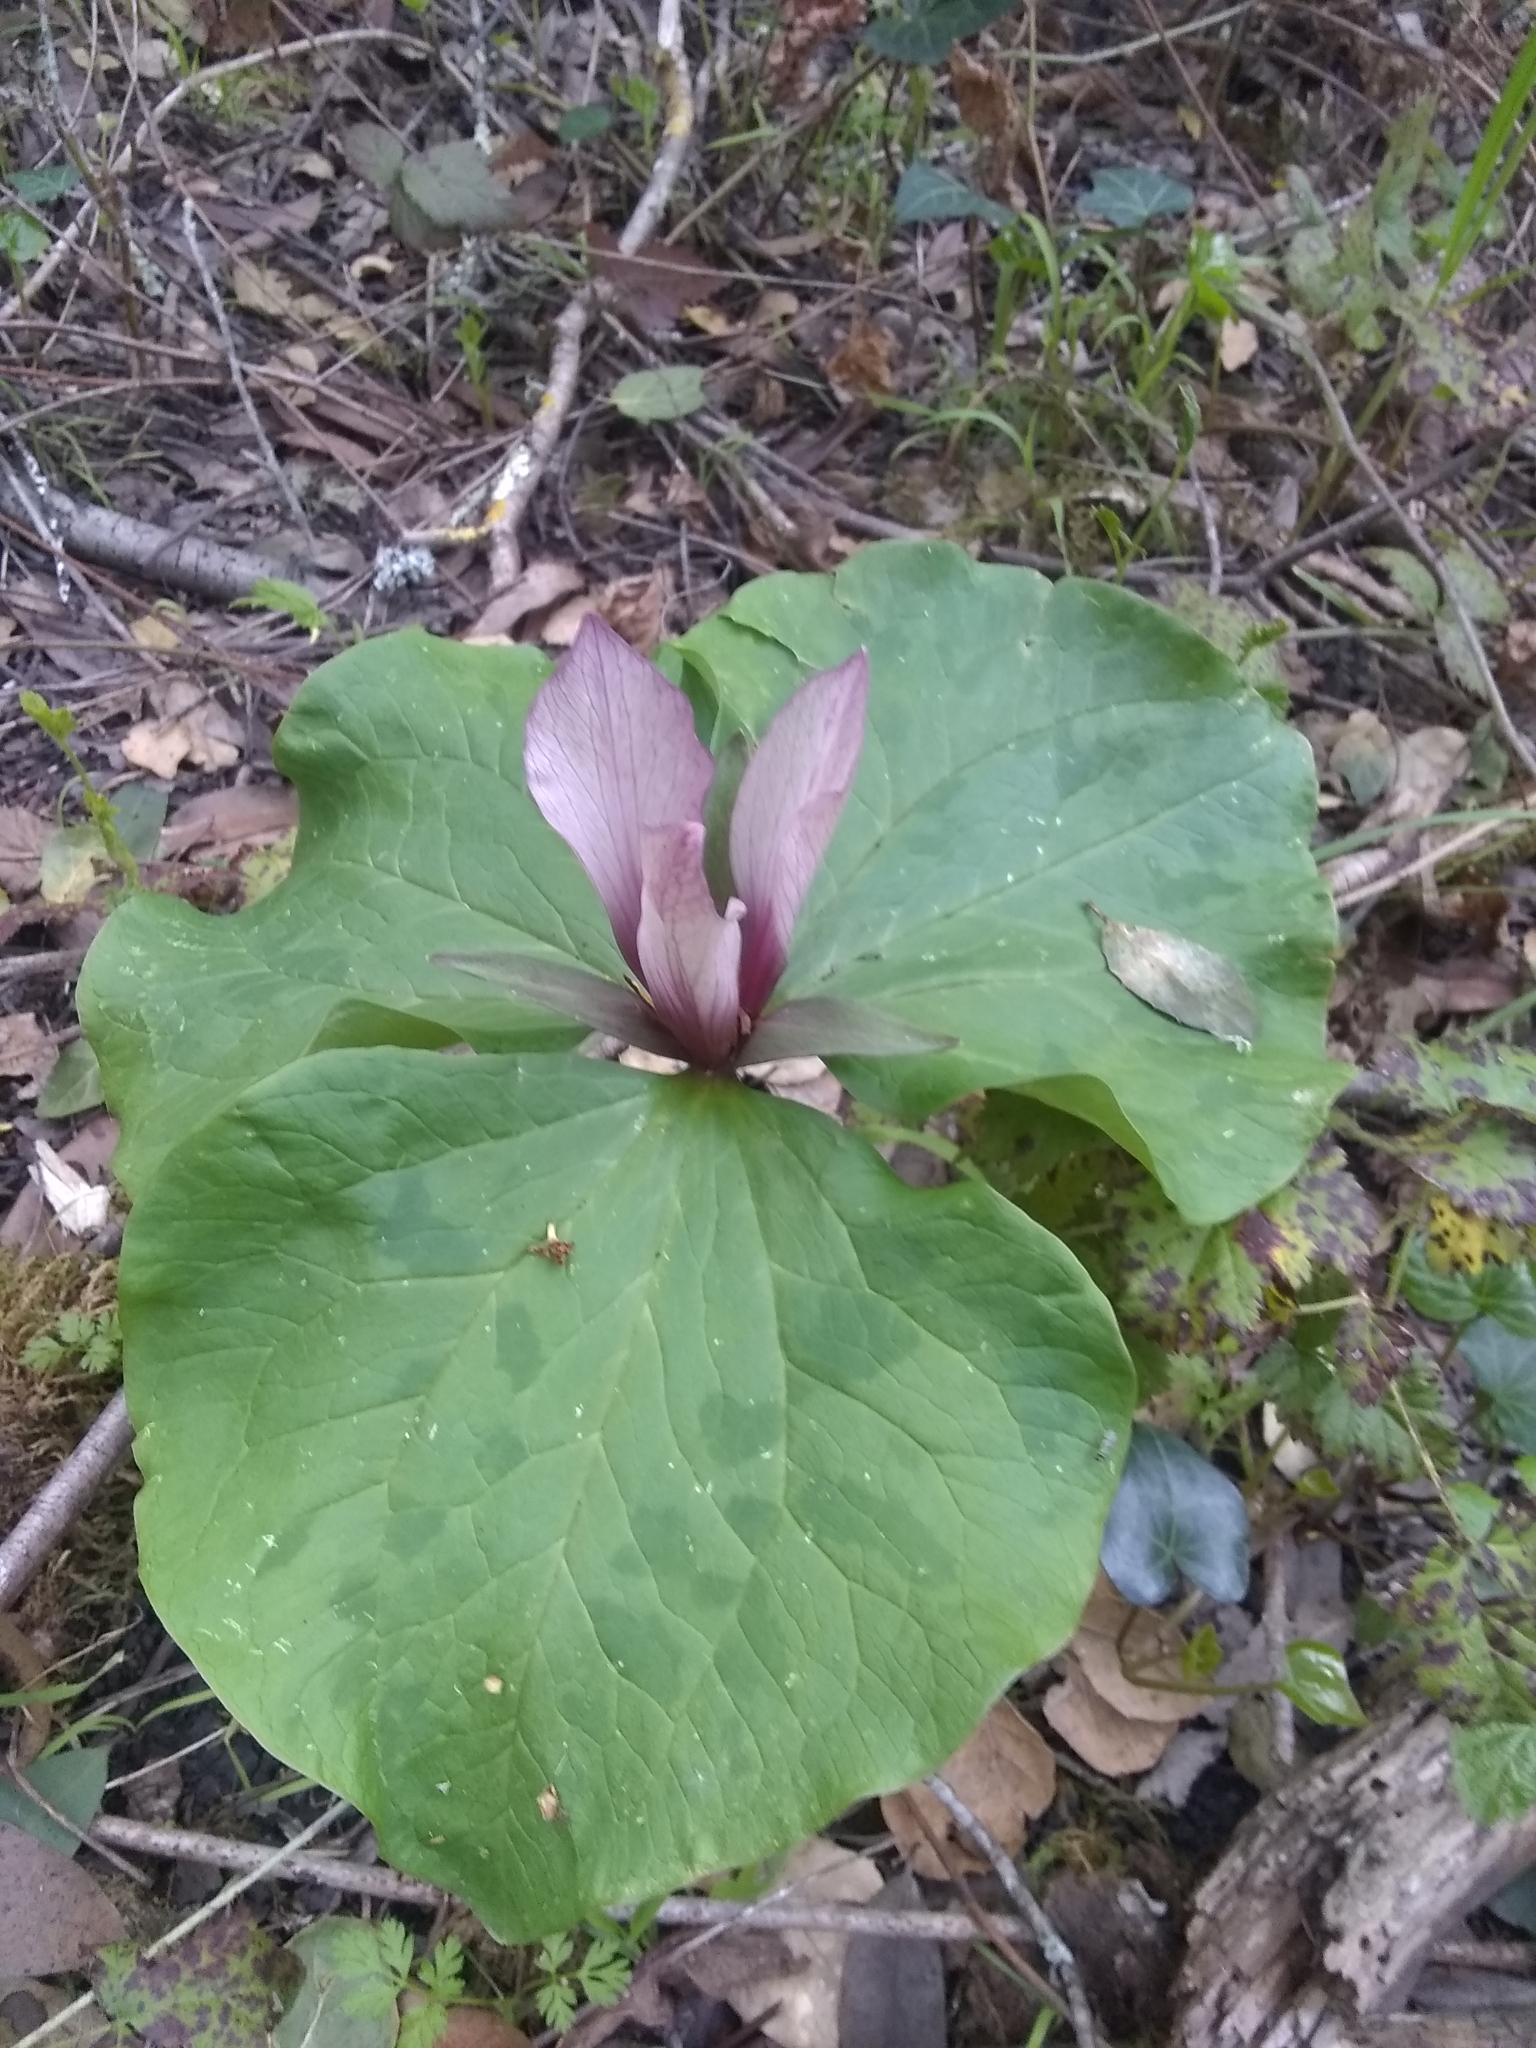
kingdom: Plantae
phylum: Tracheophyta
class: Liliopsida
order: Liliales
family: Melanthiaceae
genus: Trillium
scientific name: Trillium chloropetalum
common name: Giant trillium
